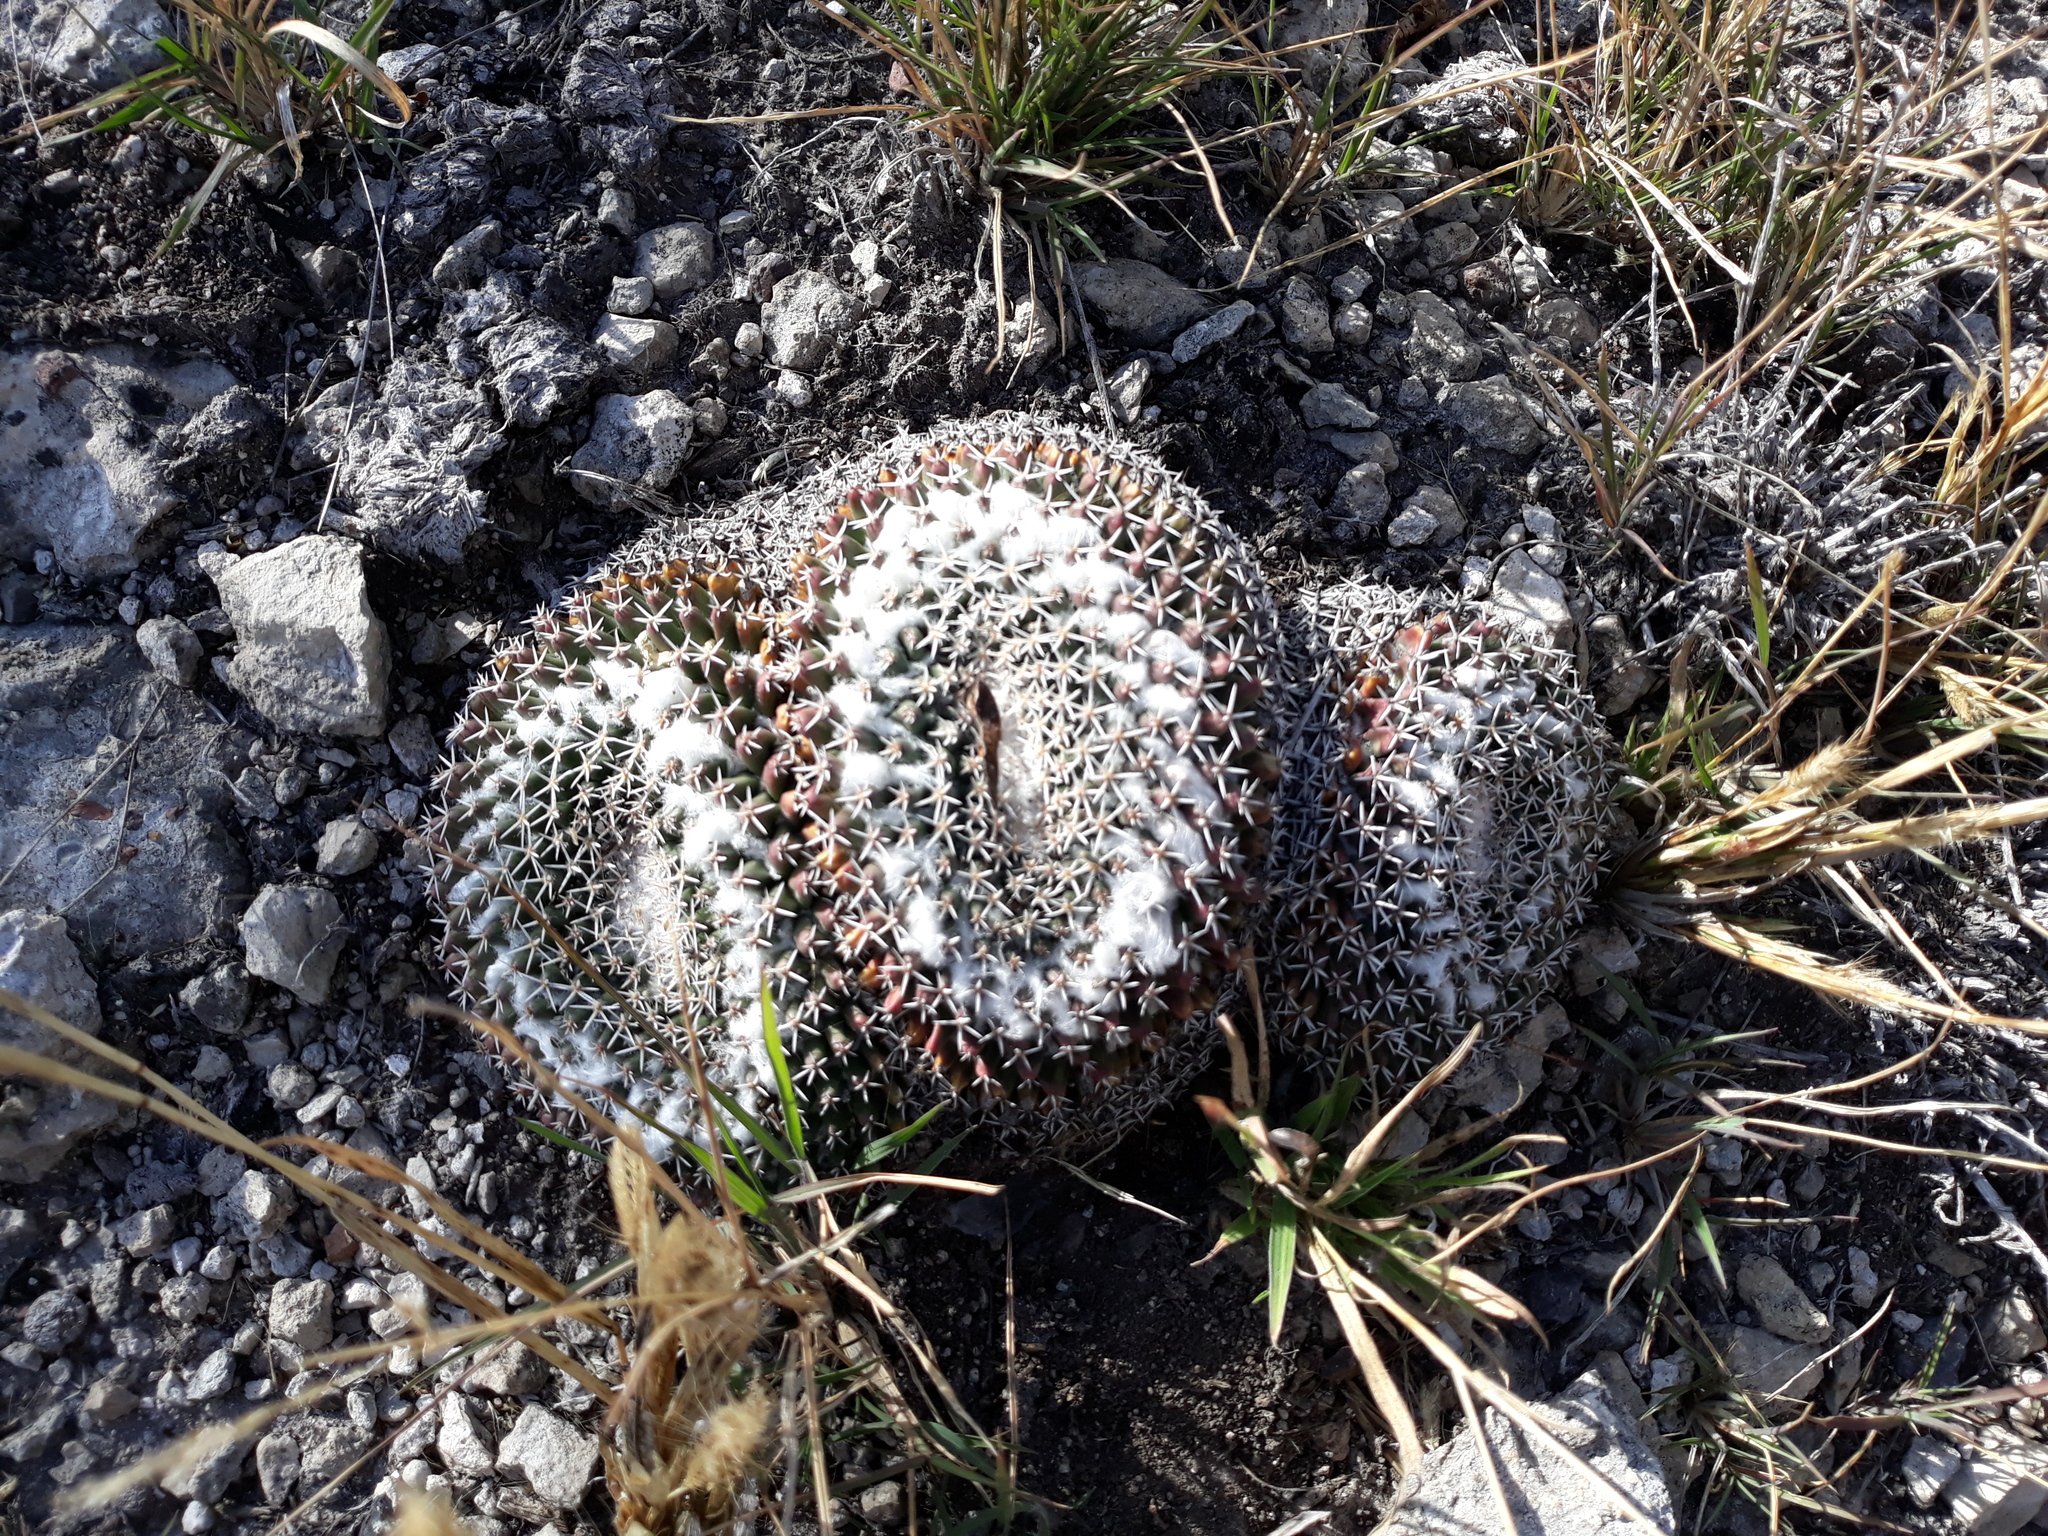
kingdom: Plantae
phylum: Tracheophyta
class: Magnoliopsida
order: Caryophyllales
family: Cactaceae
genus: Mammillaria
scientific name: Mammillaria
